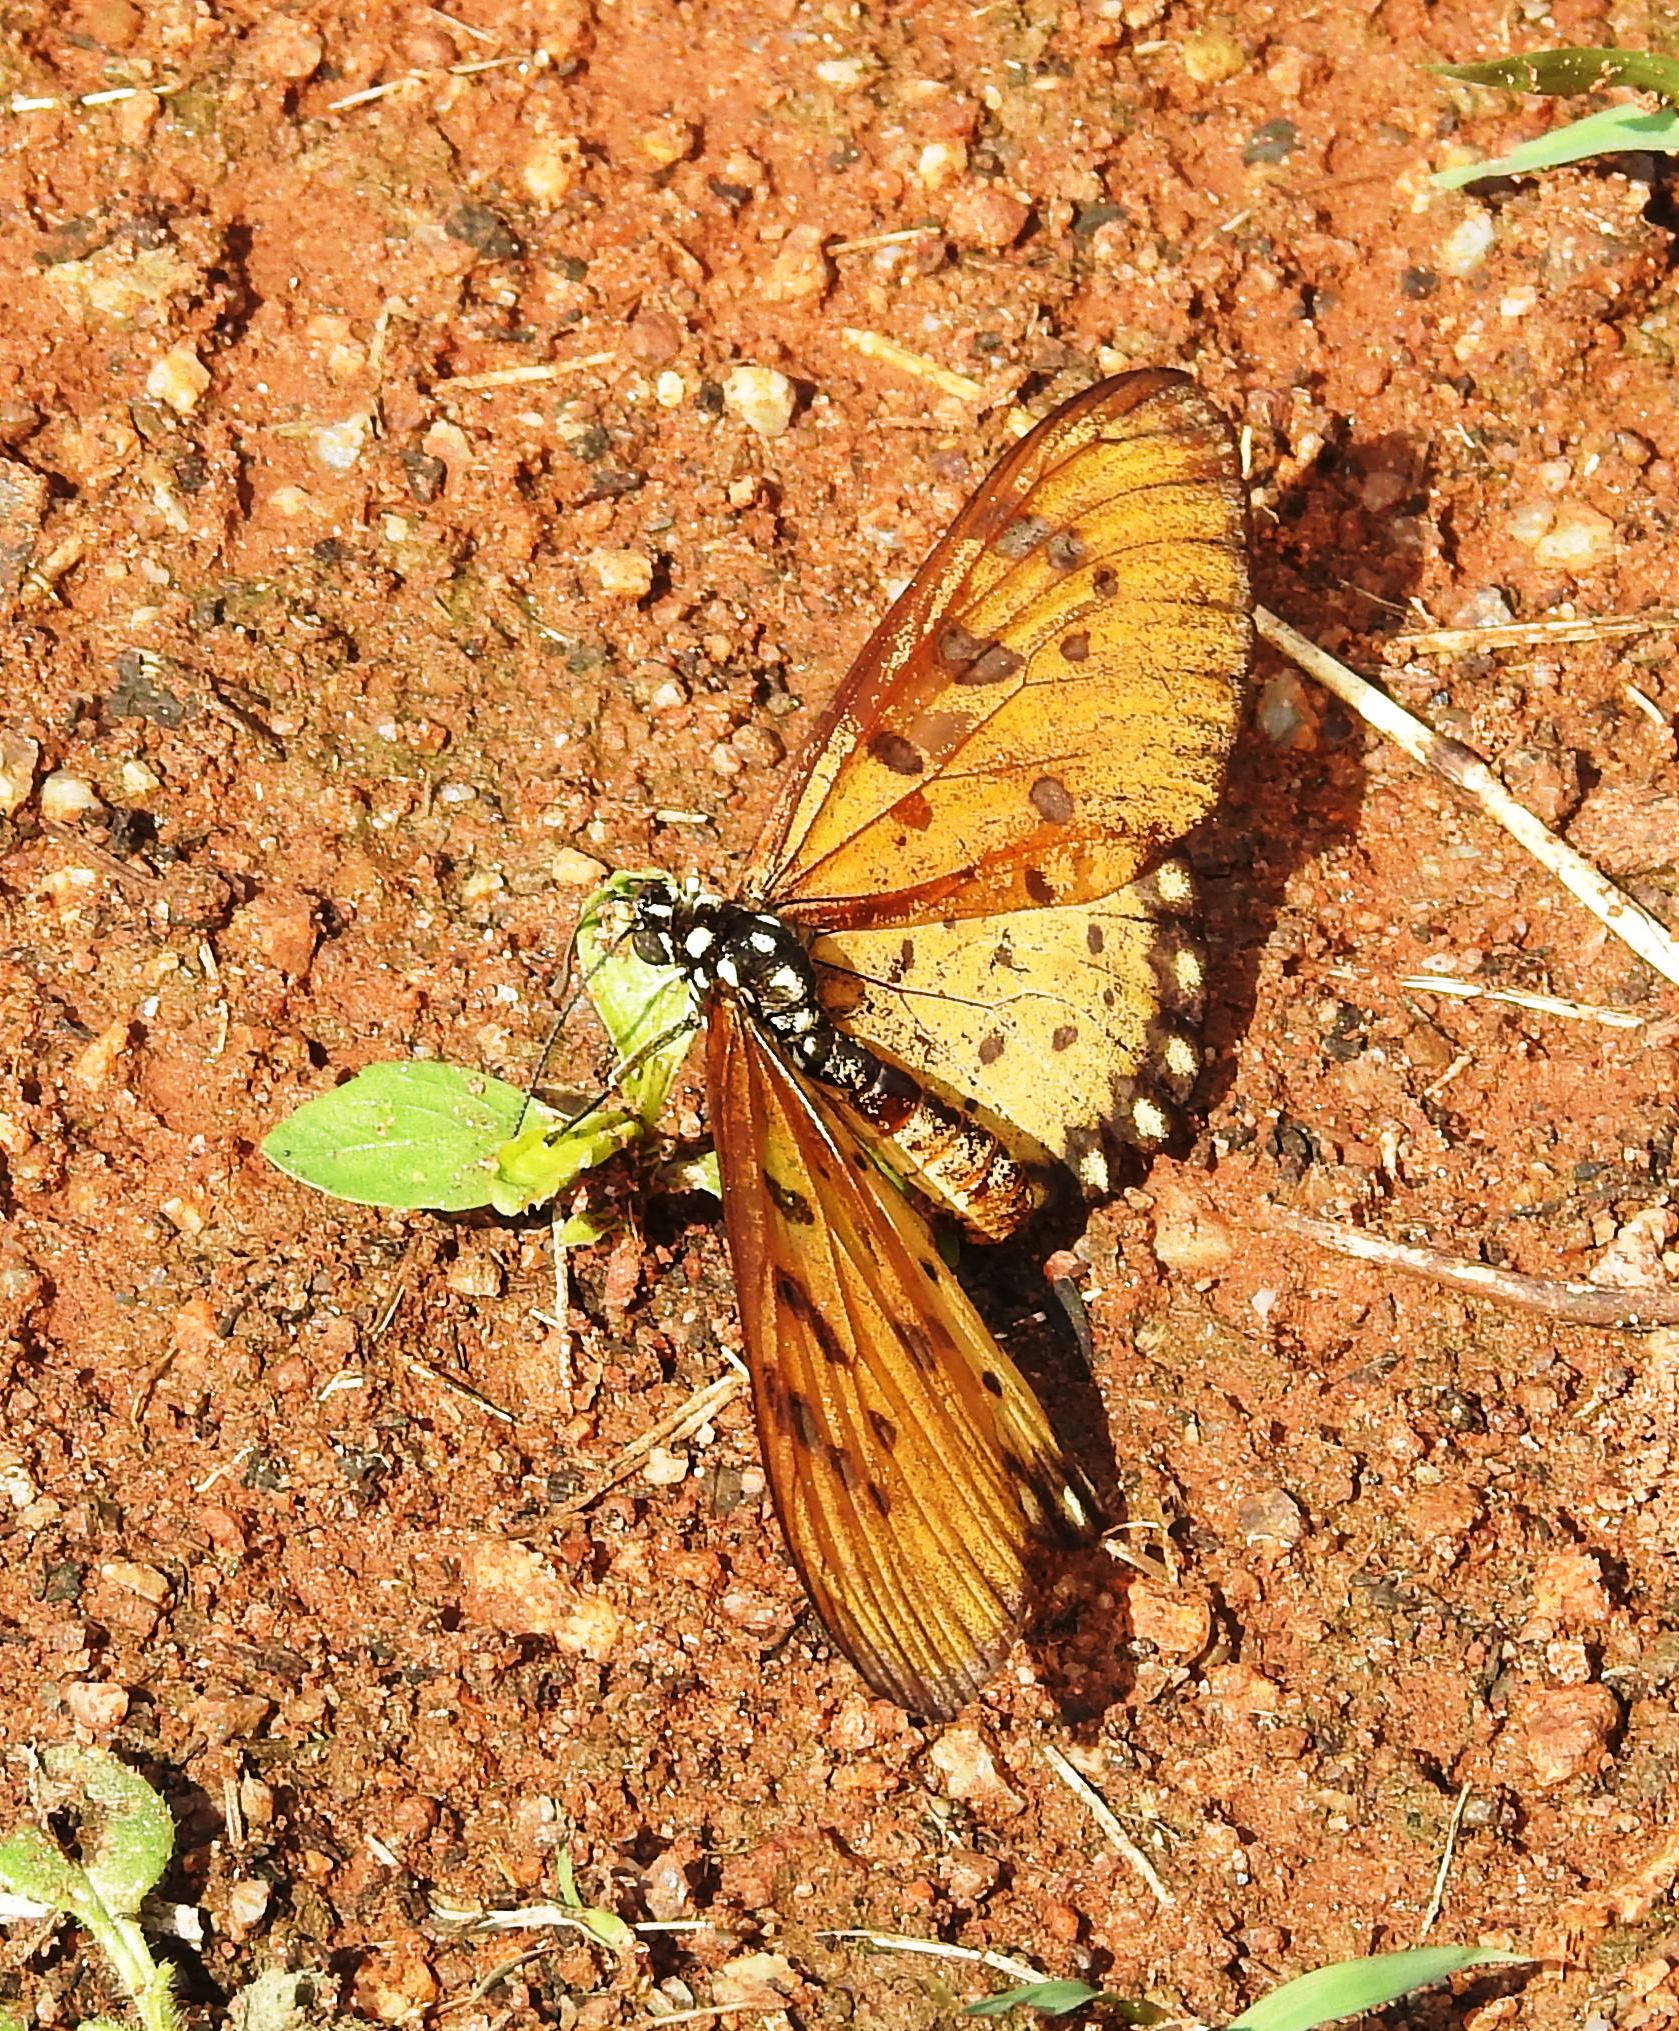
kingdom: Animalia
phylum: Arthropoda
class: Insecta
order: Lepidoptera
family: Nymphalidae
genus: Acraea
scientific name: Acraea terpsicore
